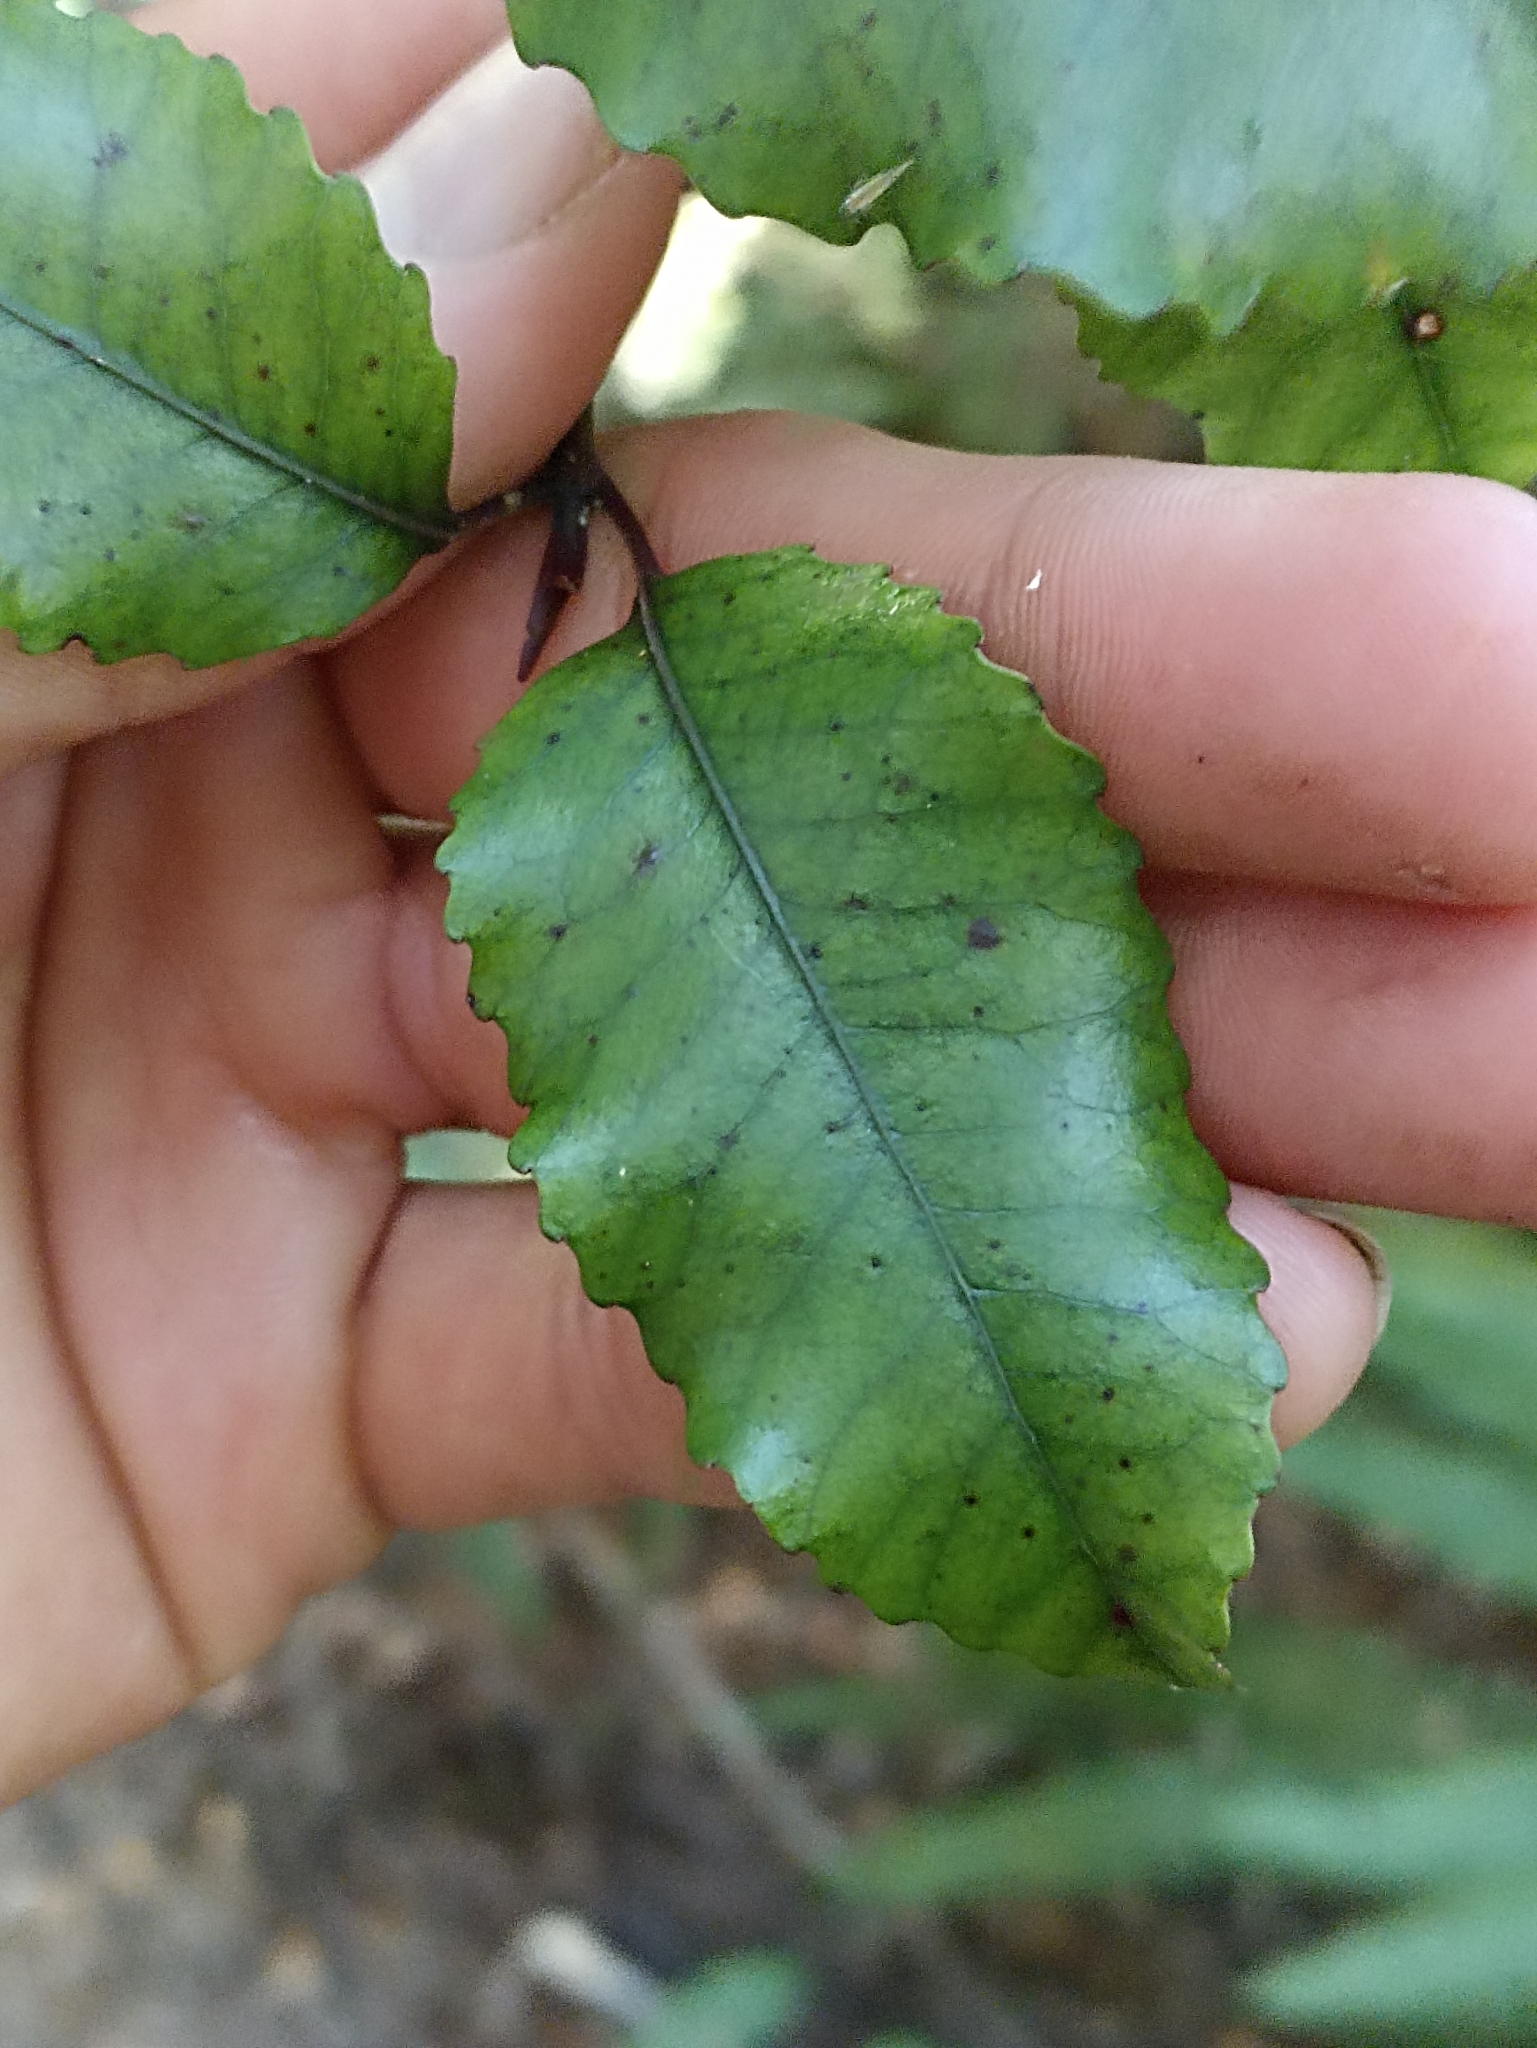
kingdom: Plantae
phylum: Tracheophyta
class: Magnoliopsida
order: Oxalidales
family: Cunoniaceae
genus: Pterophylla
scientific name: Pterophylla racemosa
